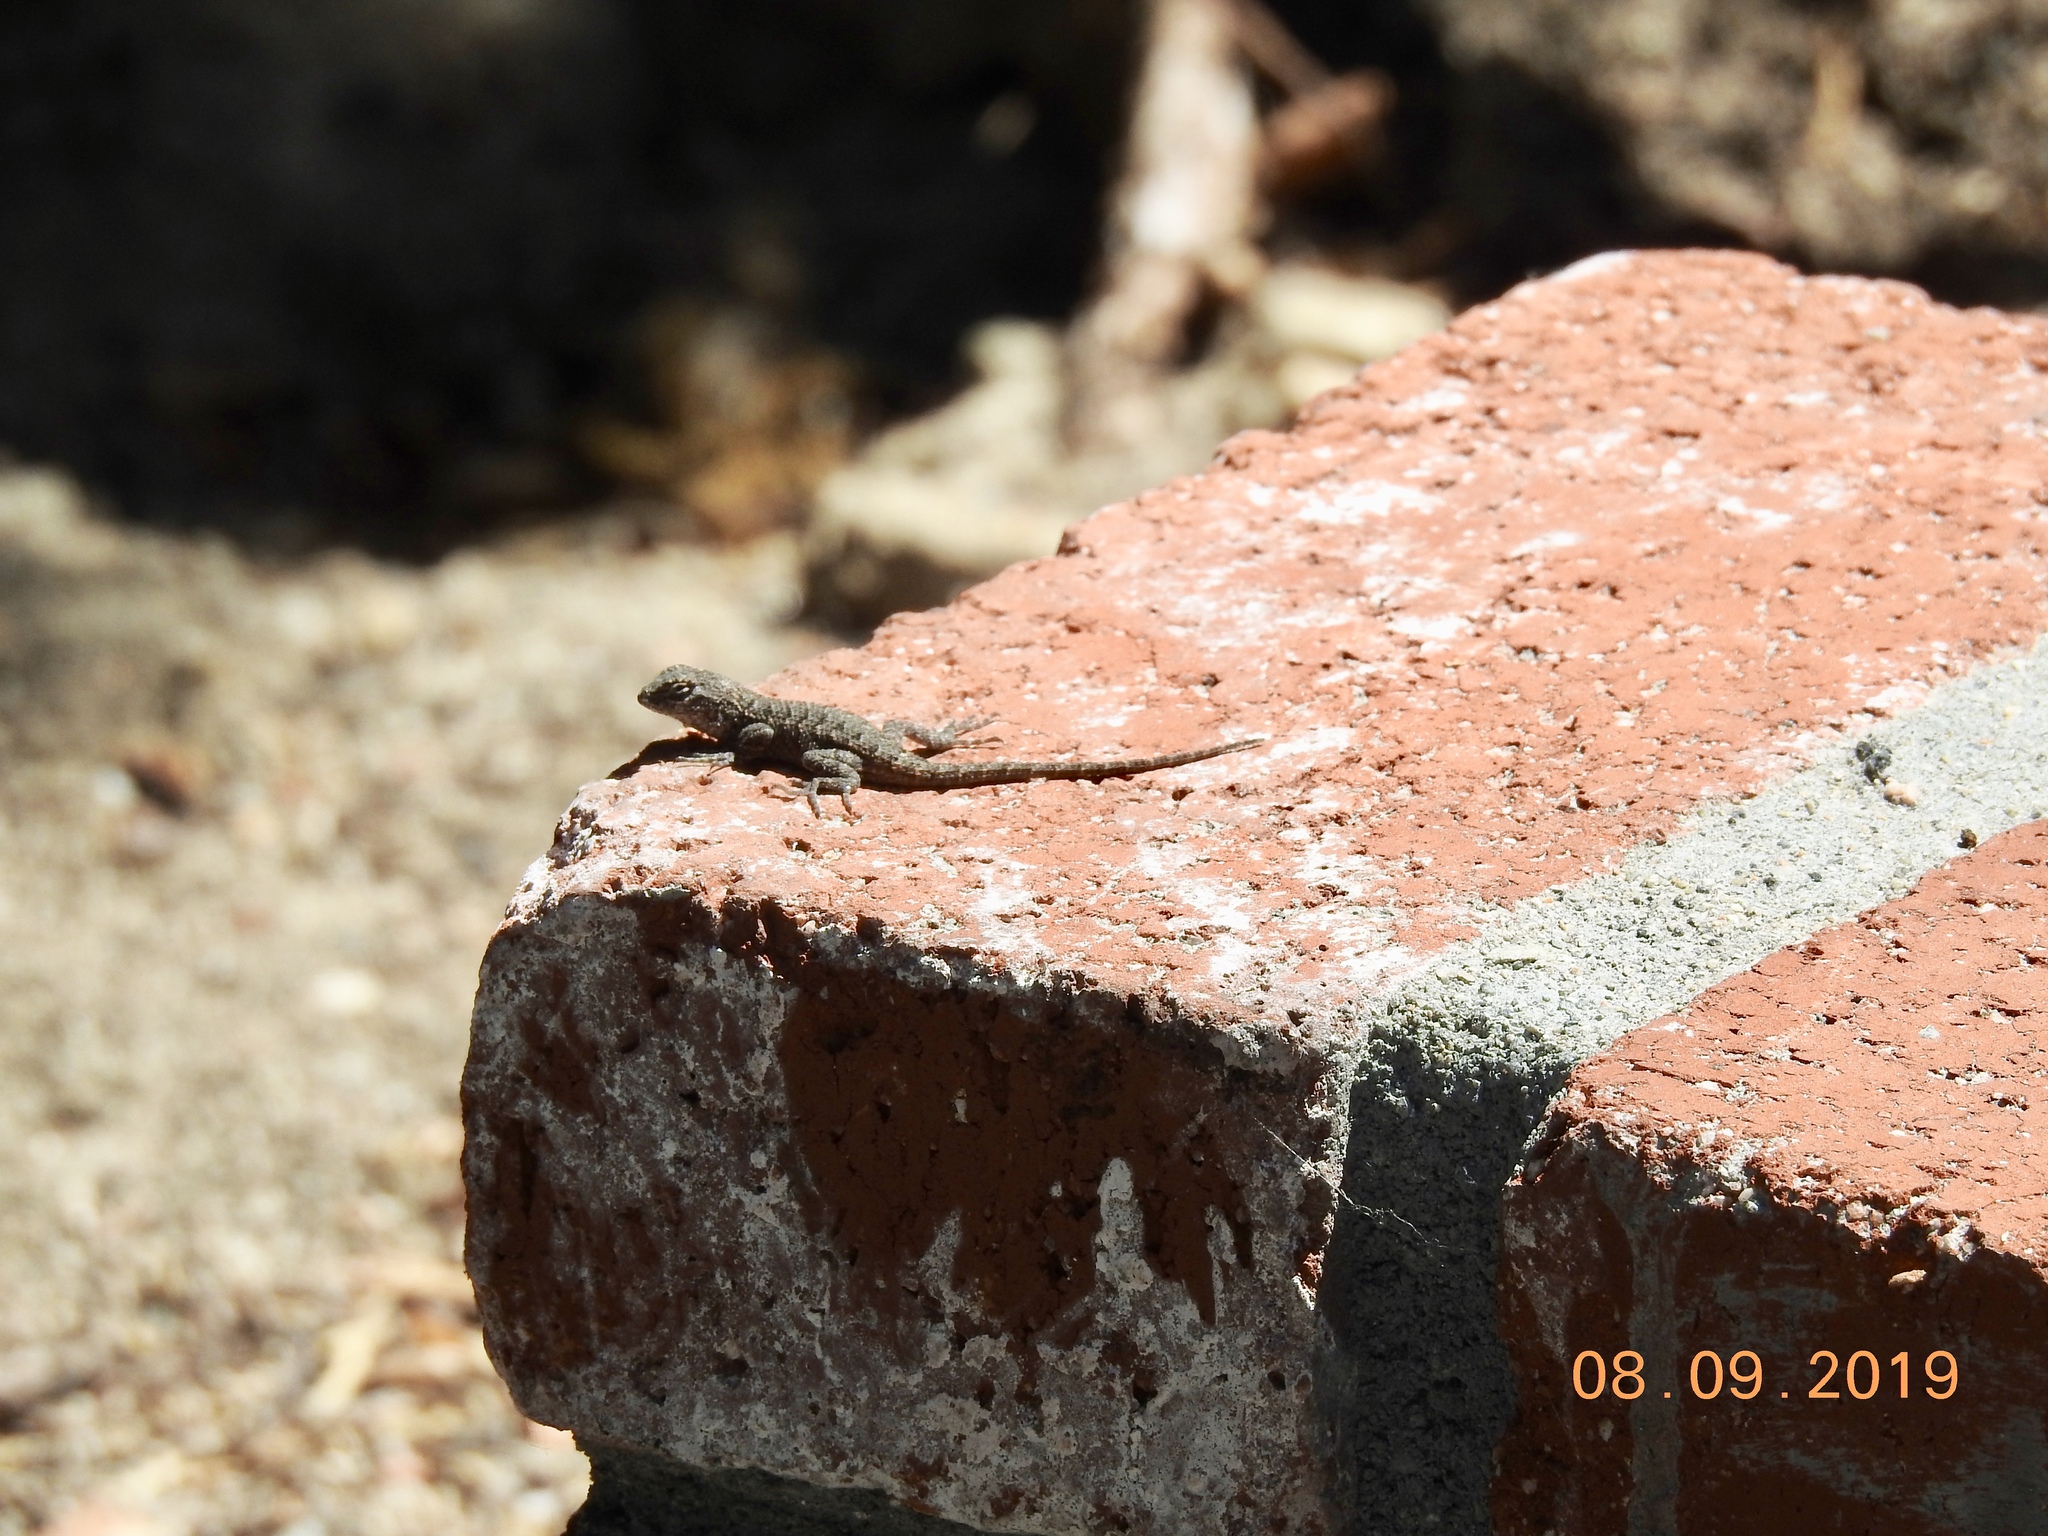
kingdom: Animalia
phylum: Chordata
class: Squamata
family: Phrynosomatidae
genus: Sceloporus
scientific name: Sceloporus occidentalis
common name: Western fence lizard
